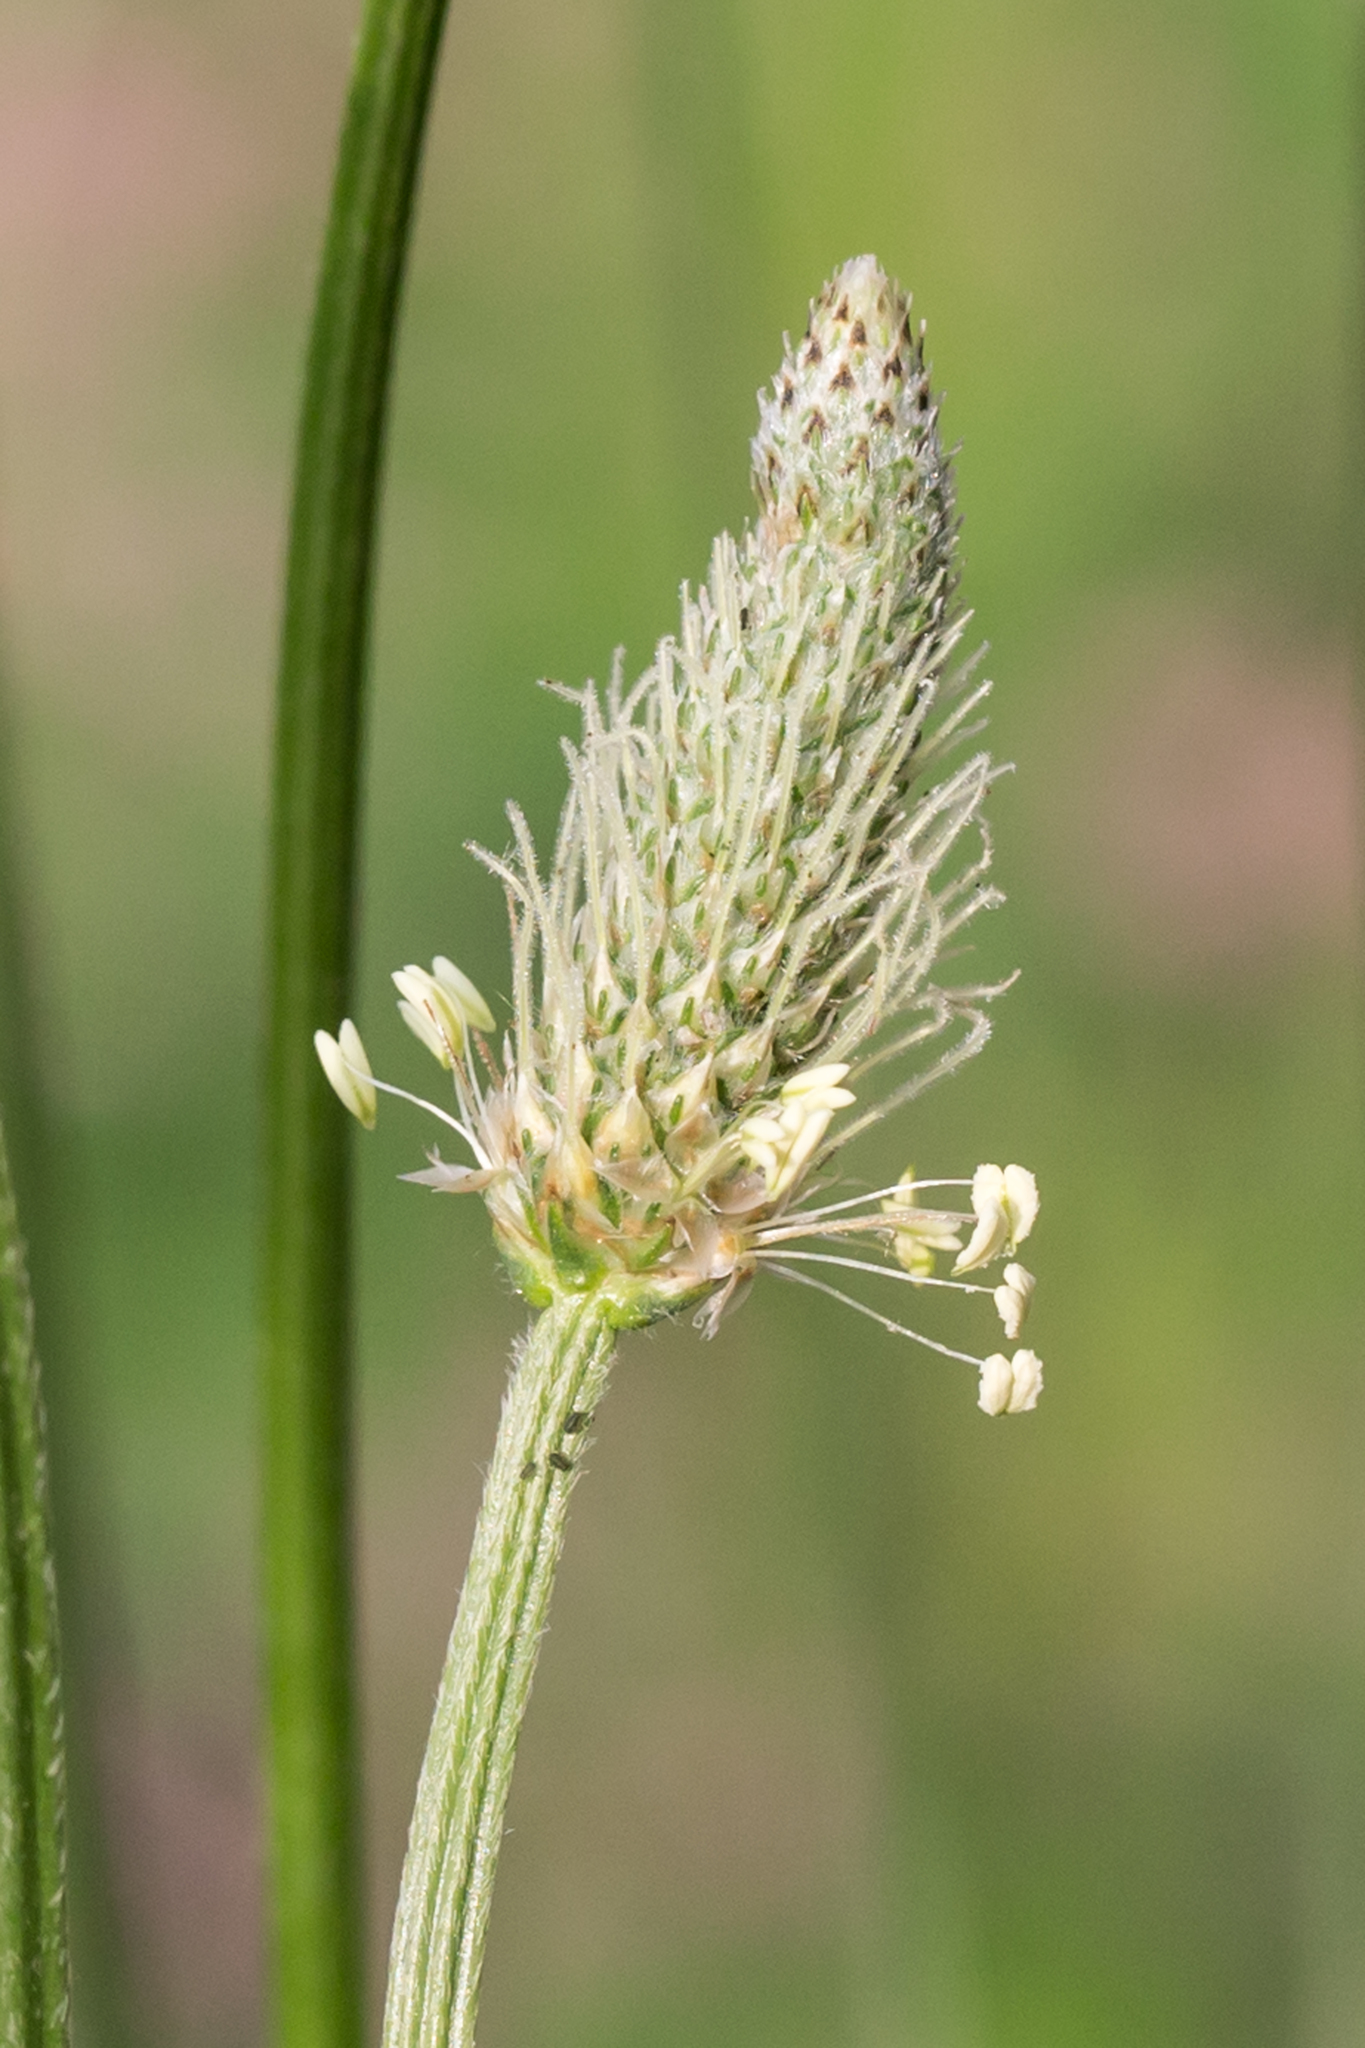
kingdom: Plantae
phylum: Tracheophyta
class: Magnoliopsida
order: Lamiales
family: Plantaginaceae
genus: Plantago
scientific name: Plantago lanceolata
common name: Ribwort plantain
